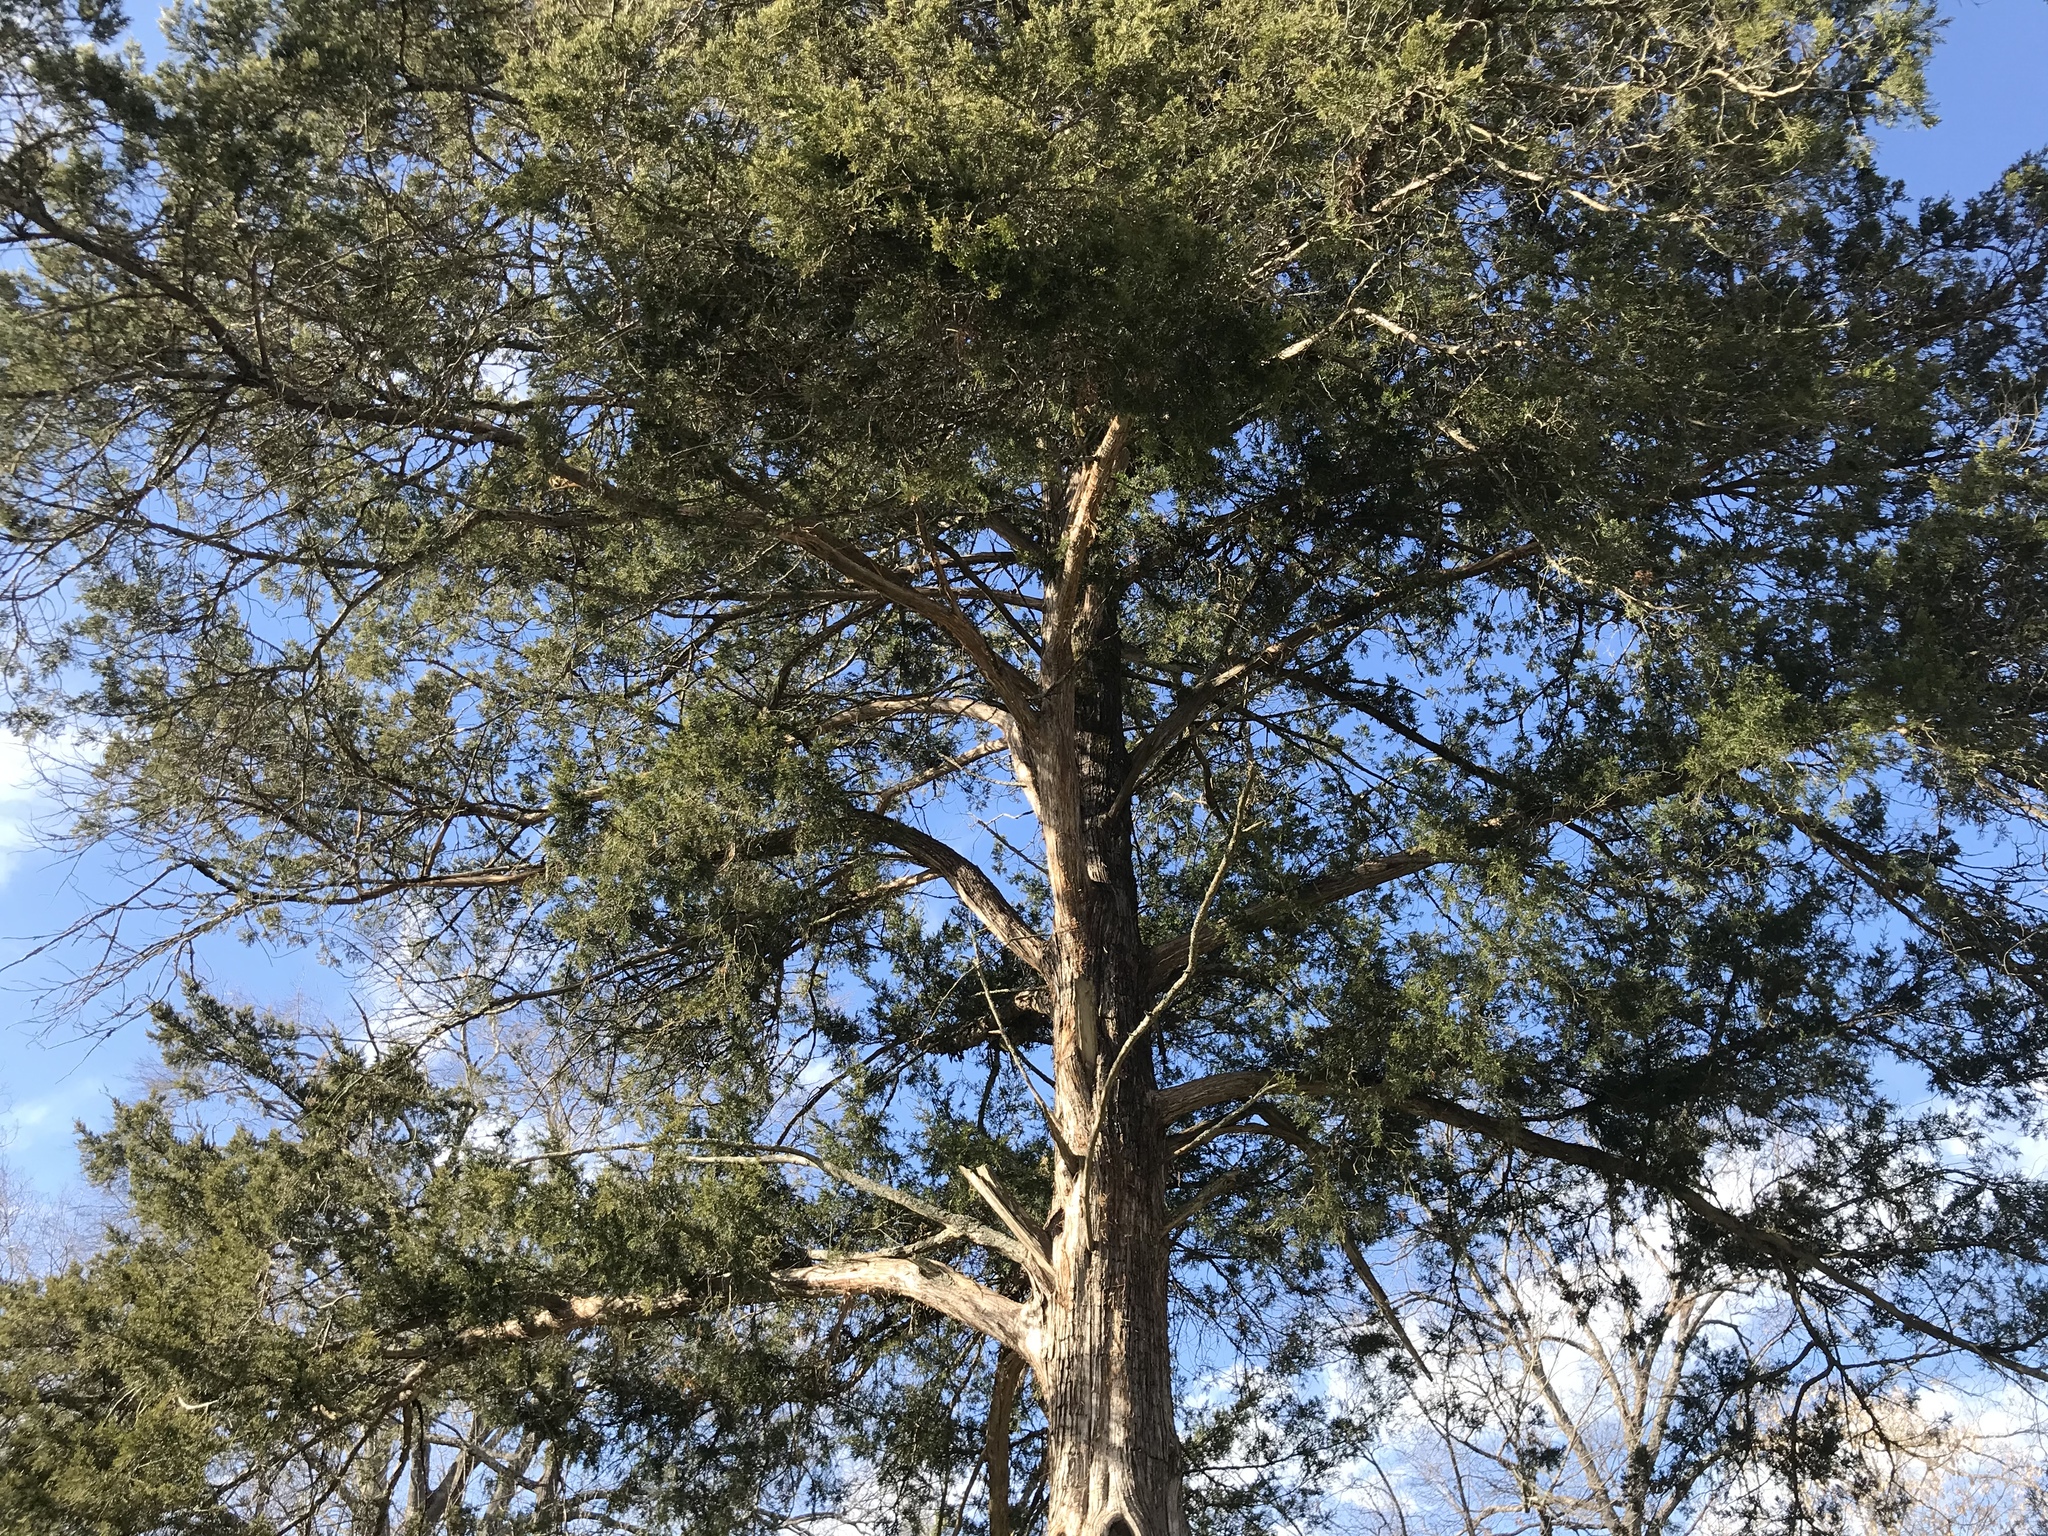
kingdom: Plantae
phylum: Tracheophyta
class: Pinopsida
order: Pinales
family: Cupressaceae
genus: Juniperus
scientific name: Juniperus virginiana
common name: Red juniper
